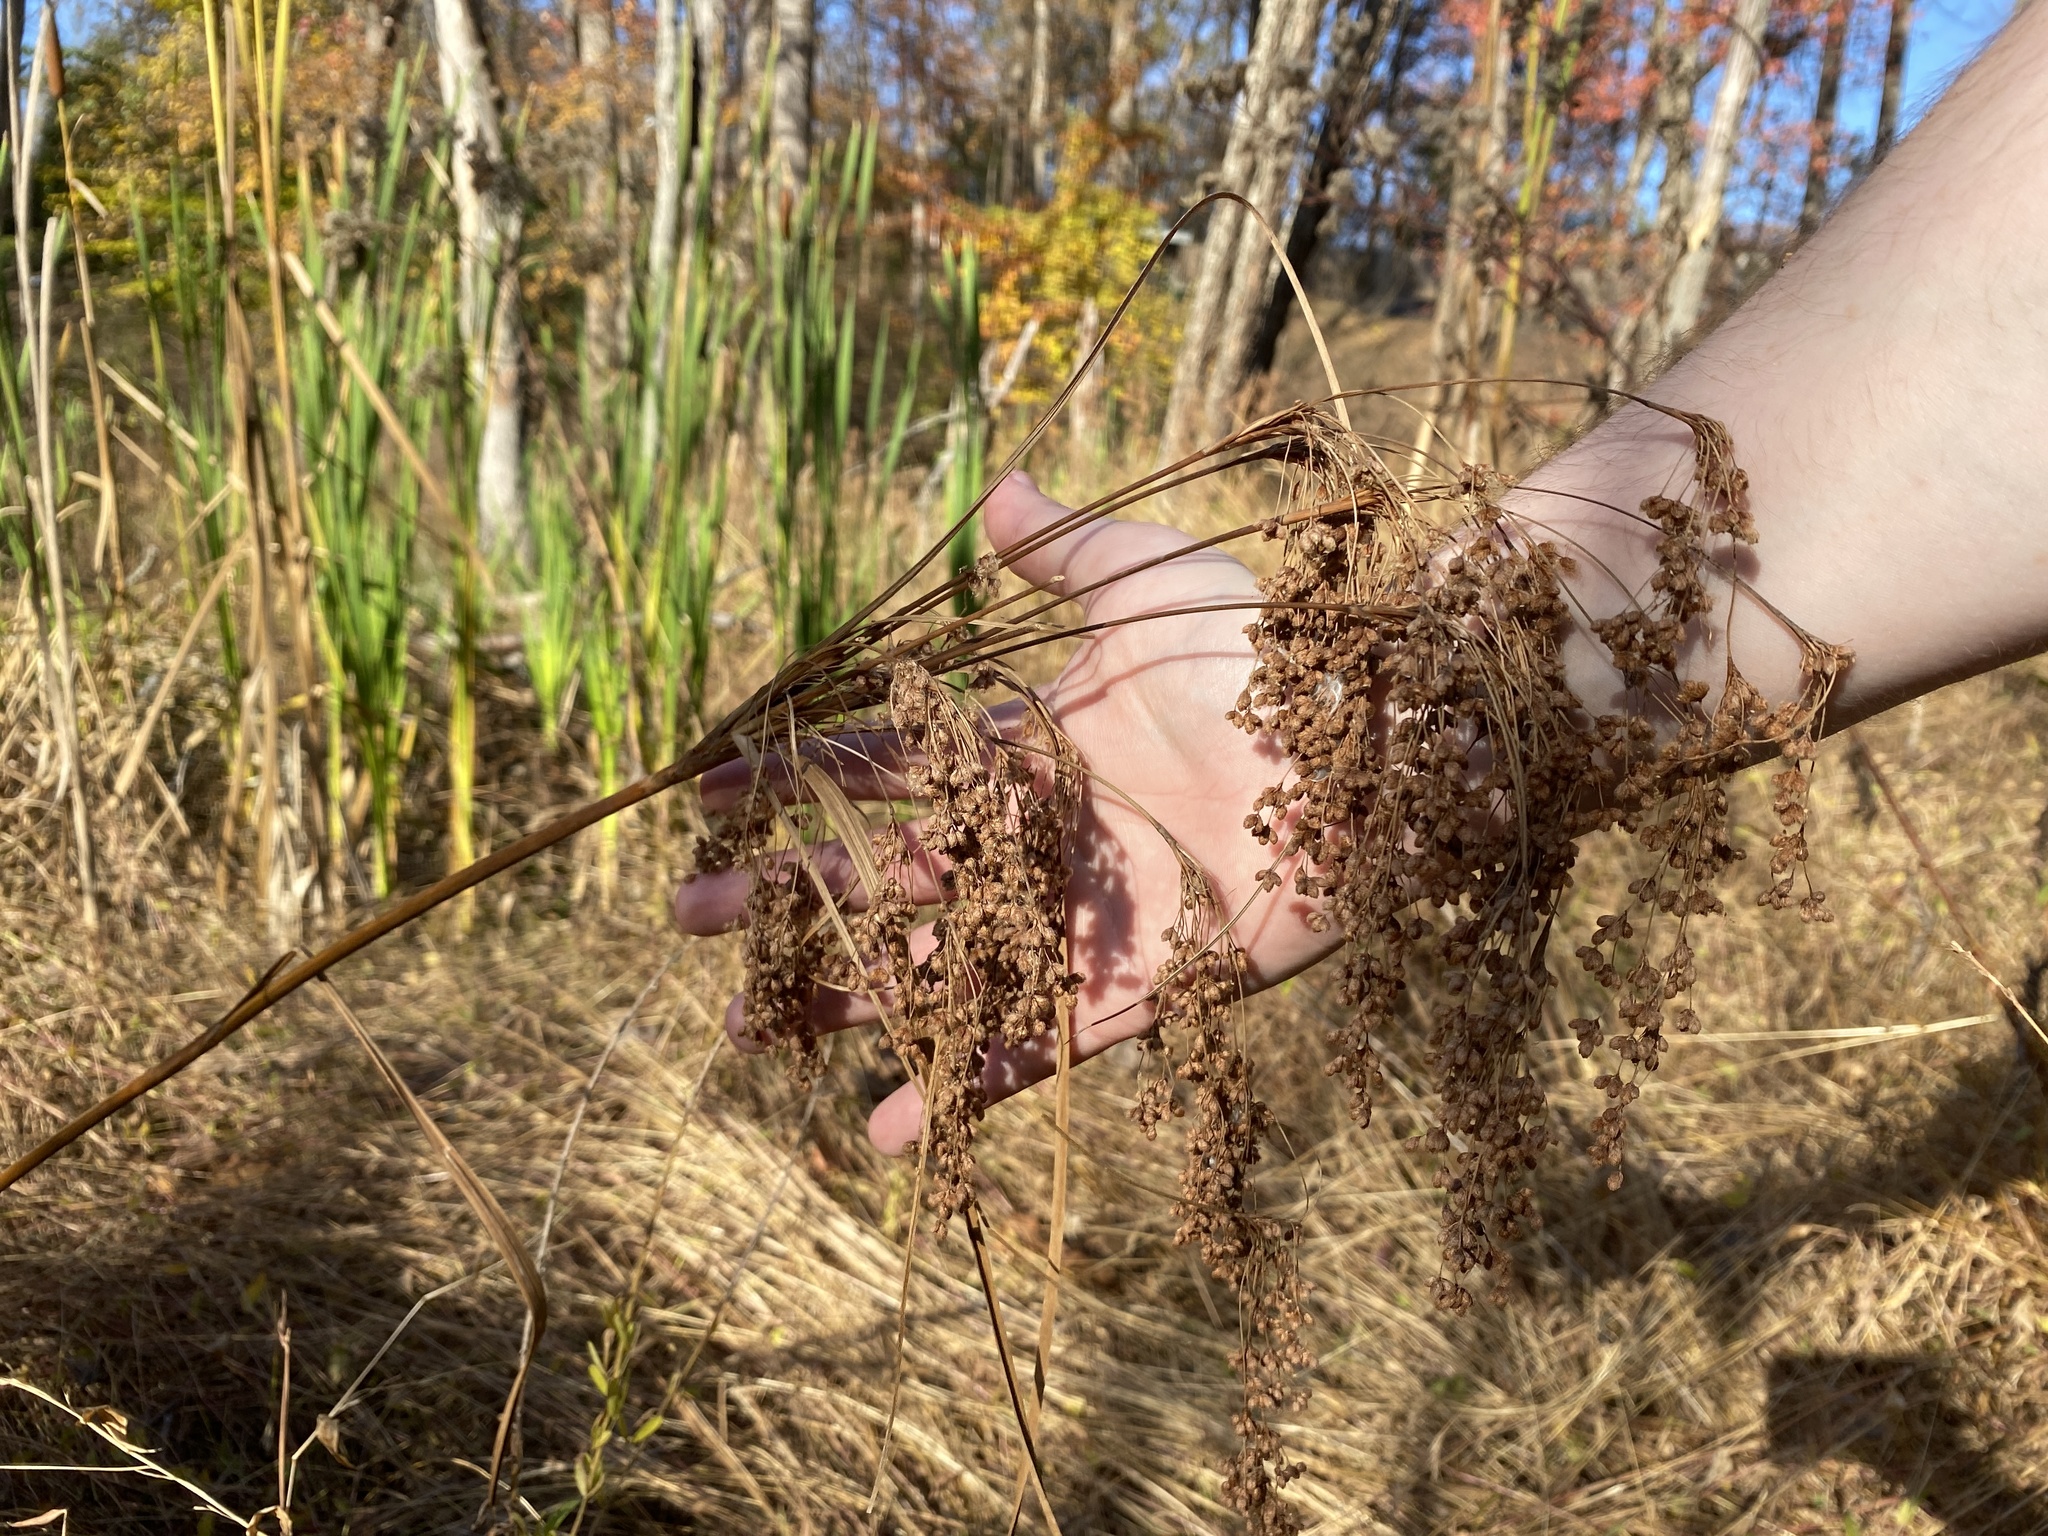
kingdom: Plantae
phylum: Tracheophyta
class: Liliopsida
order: Poales
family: Cyperaceae
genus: Scirpus
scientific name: Scirpus cyperinus
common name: Black-sheathed bulrush
